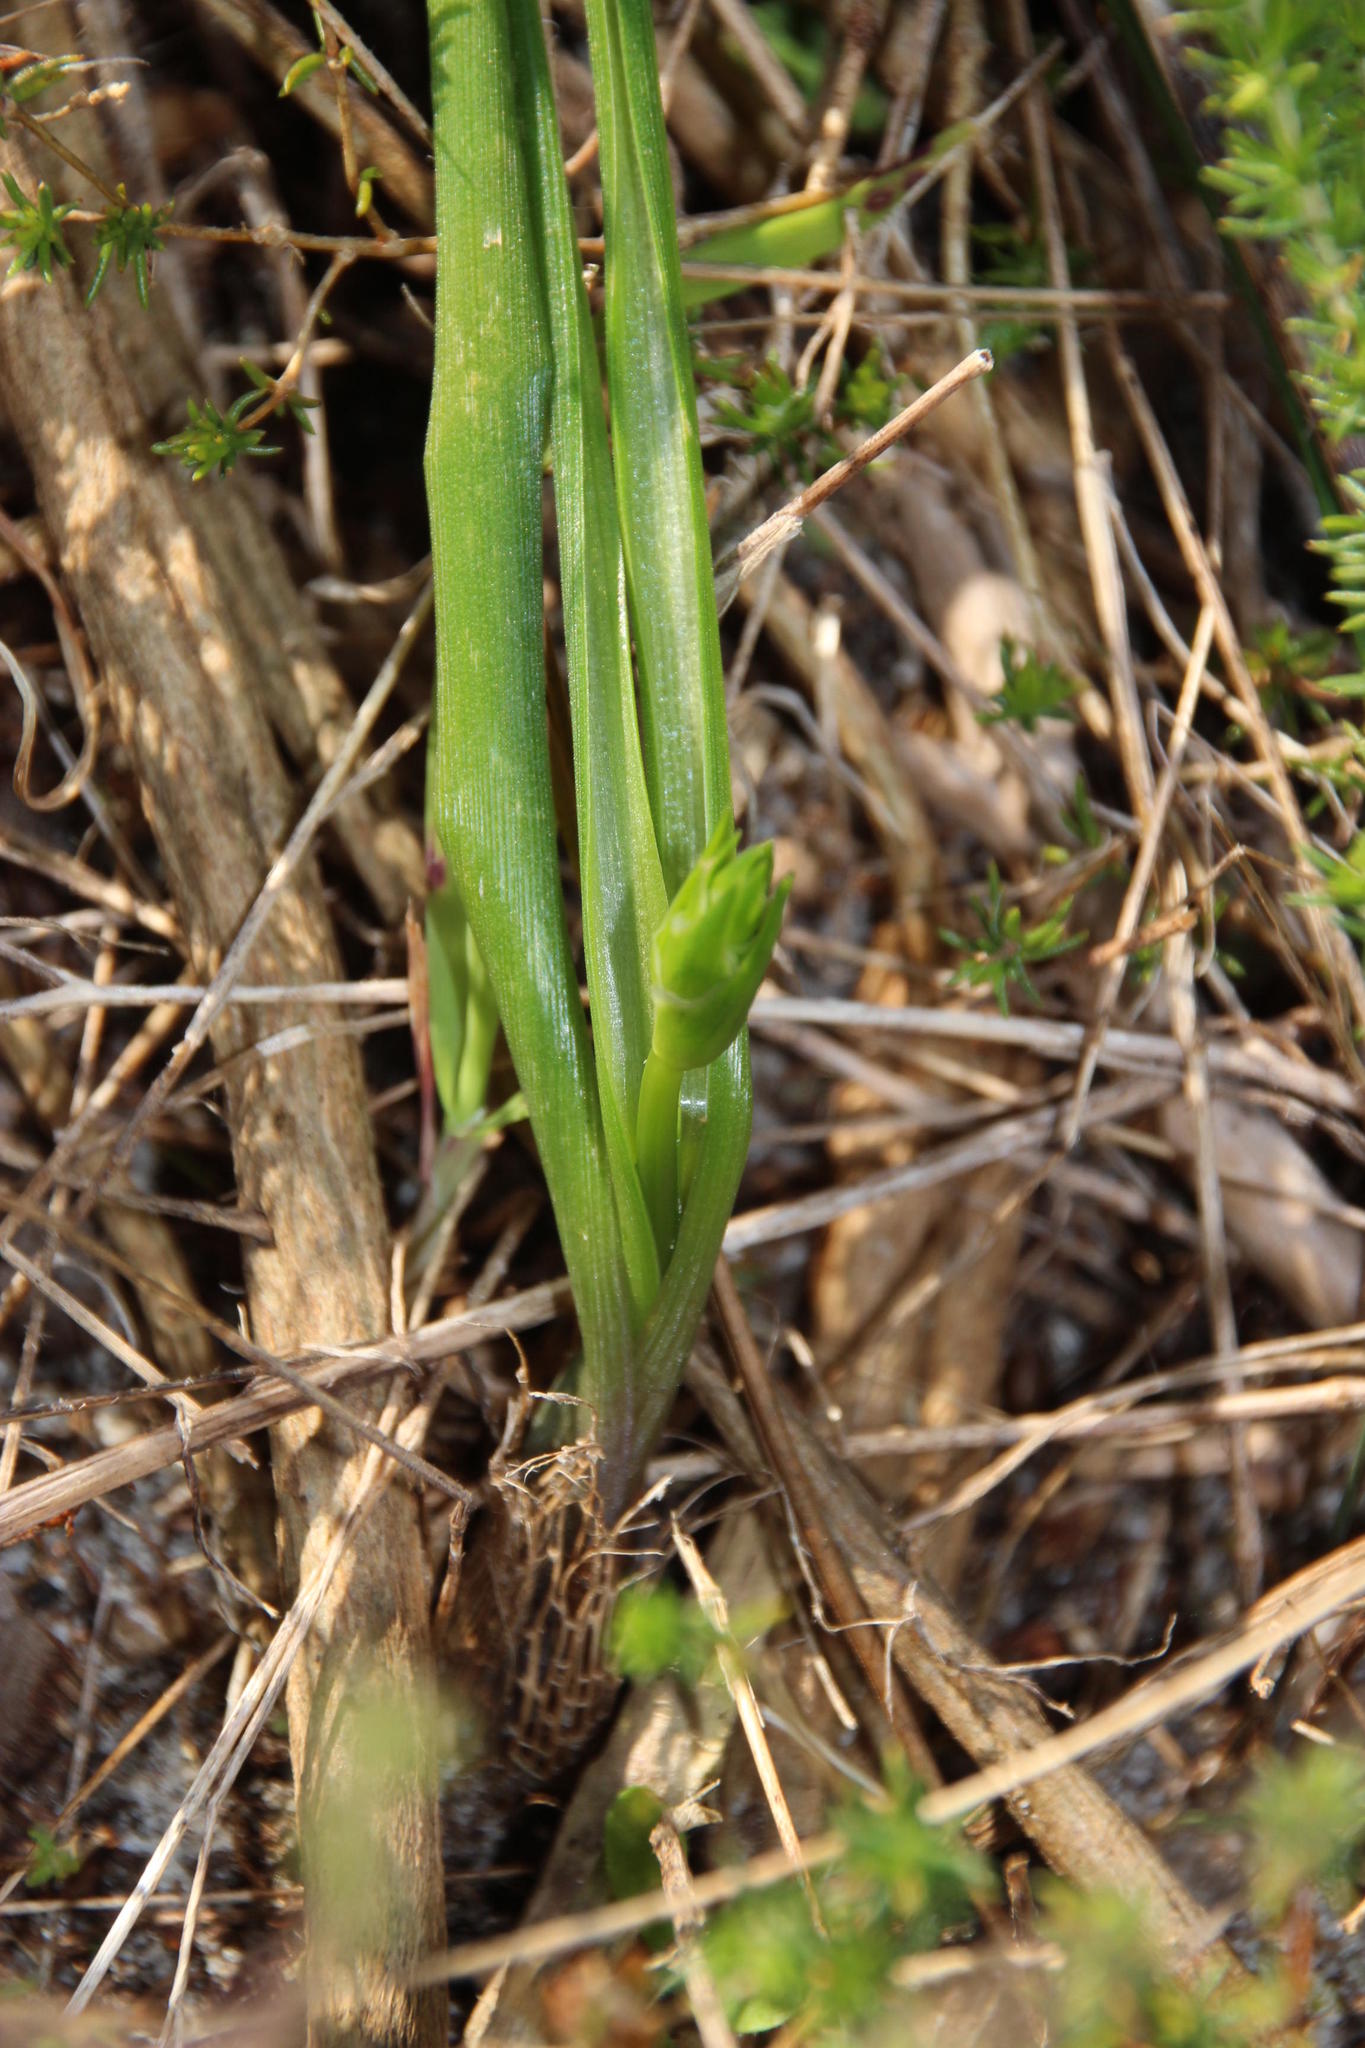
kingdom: Plantae
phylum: Tracheophyta
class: Liliopsida
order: Asparagales
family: Asparagaceae
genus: Albuca
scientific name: Albuca cooperi
